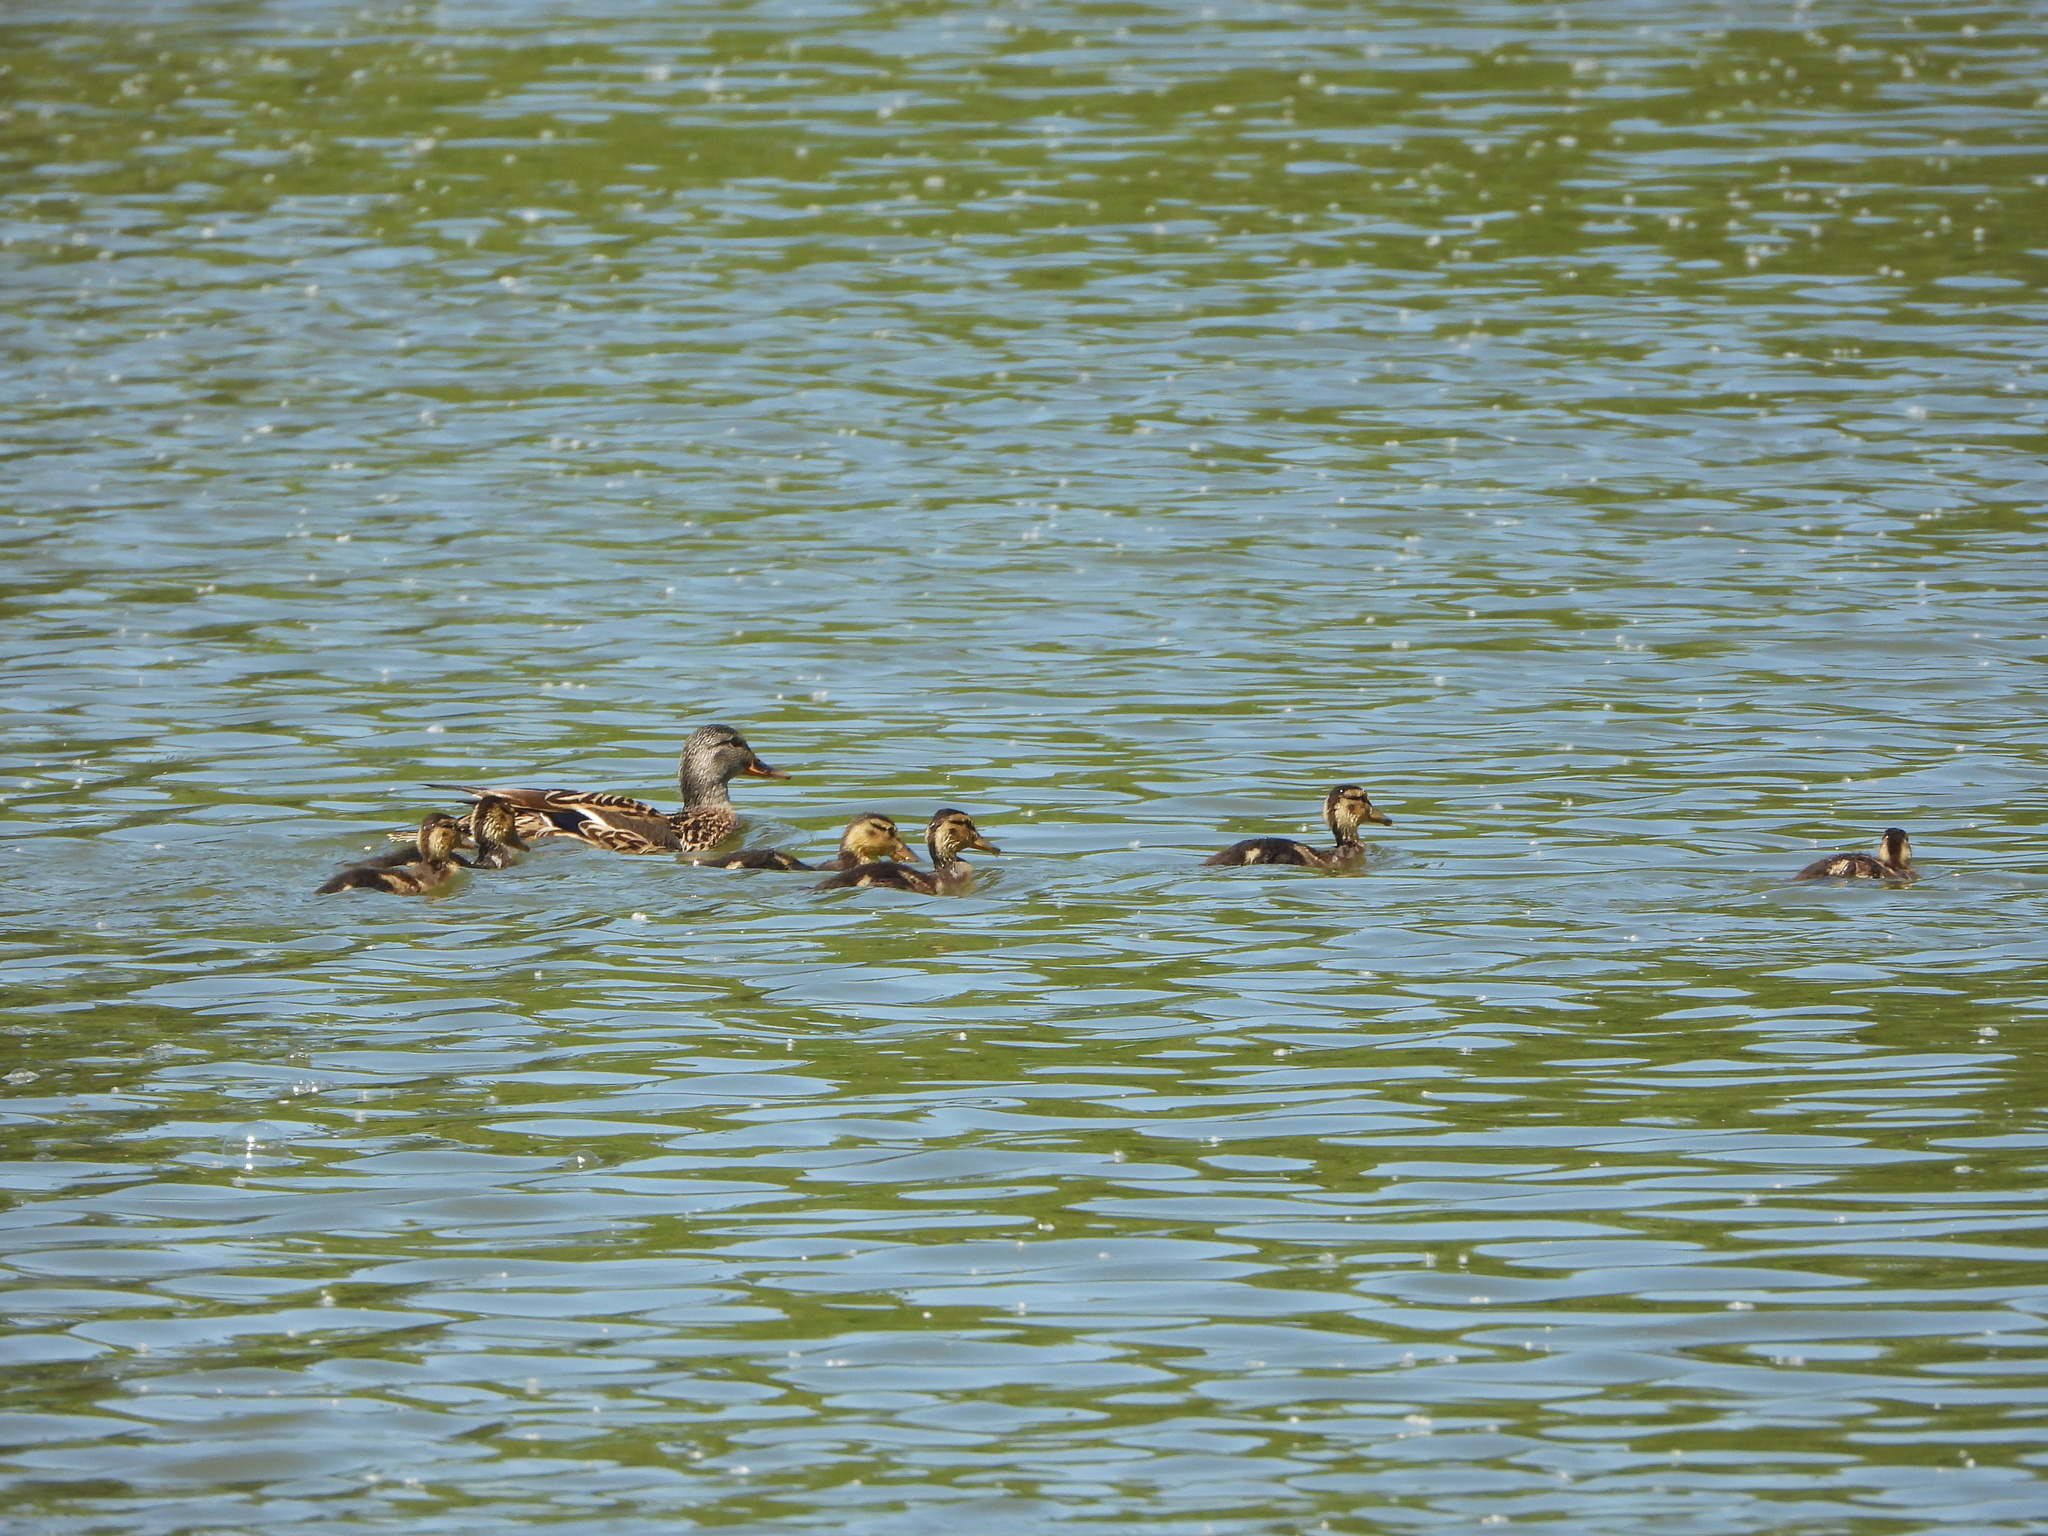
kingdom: Animalia
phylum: Chordata
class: Aves
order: Anseriformes
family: Anatidae
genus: Anas
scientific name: Anas platyrhynchos
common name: Mallard
